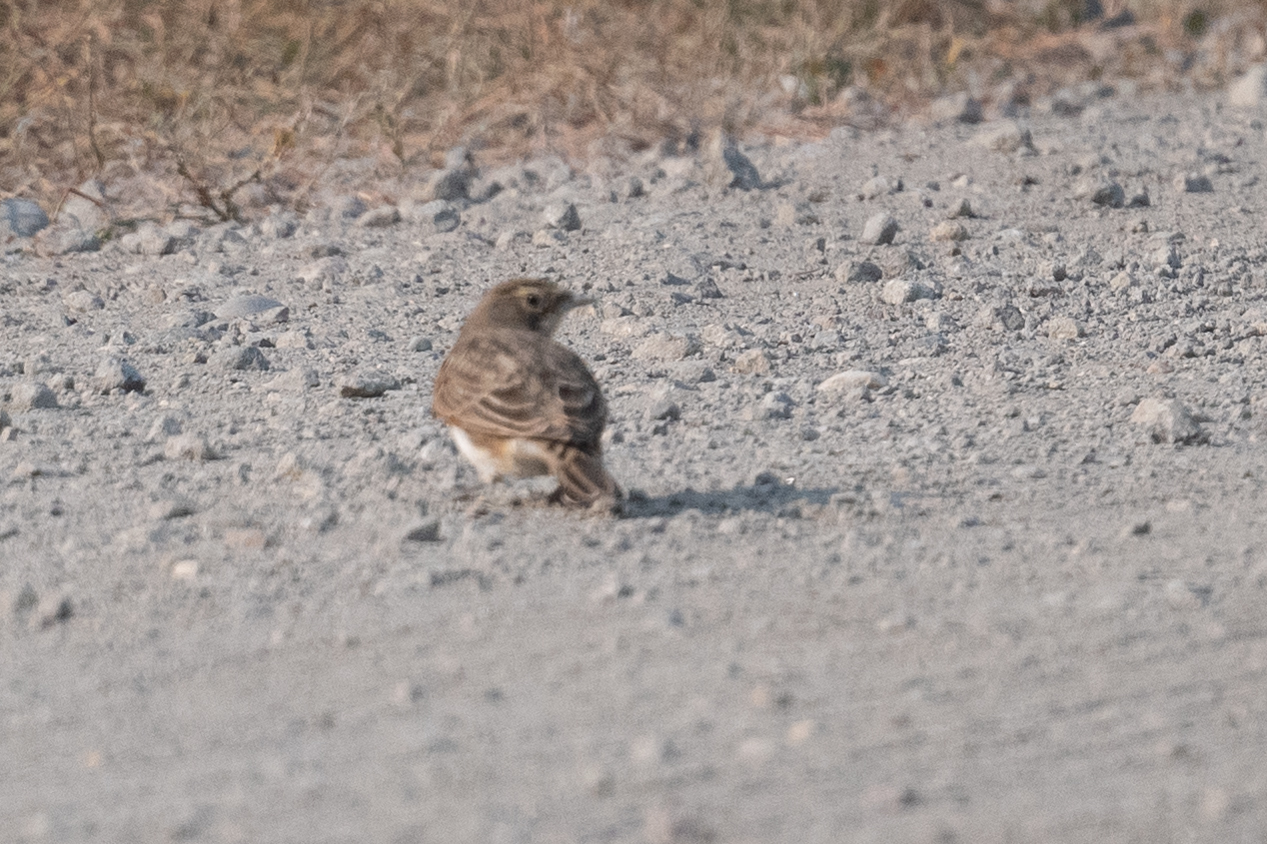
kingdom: Animalia
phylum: Chordata
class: Aves
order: Passeriformes
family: Alaudidae
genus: Eremophila
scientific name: Eremophila alpestris
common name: Horned lark
